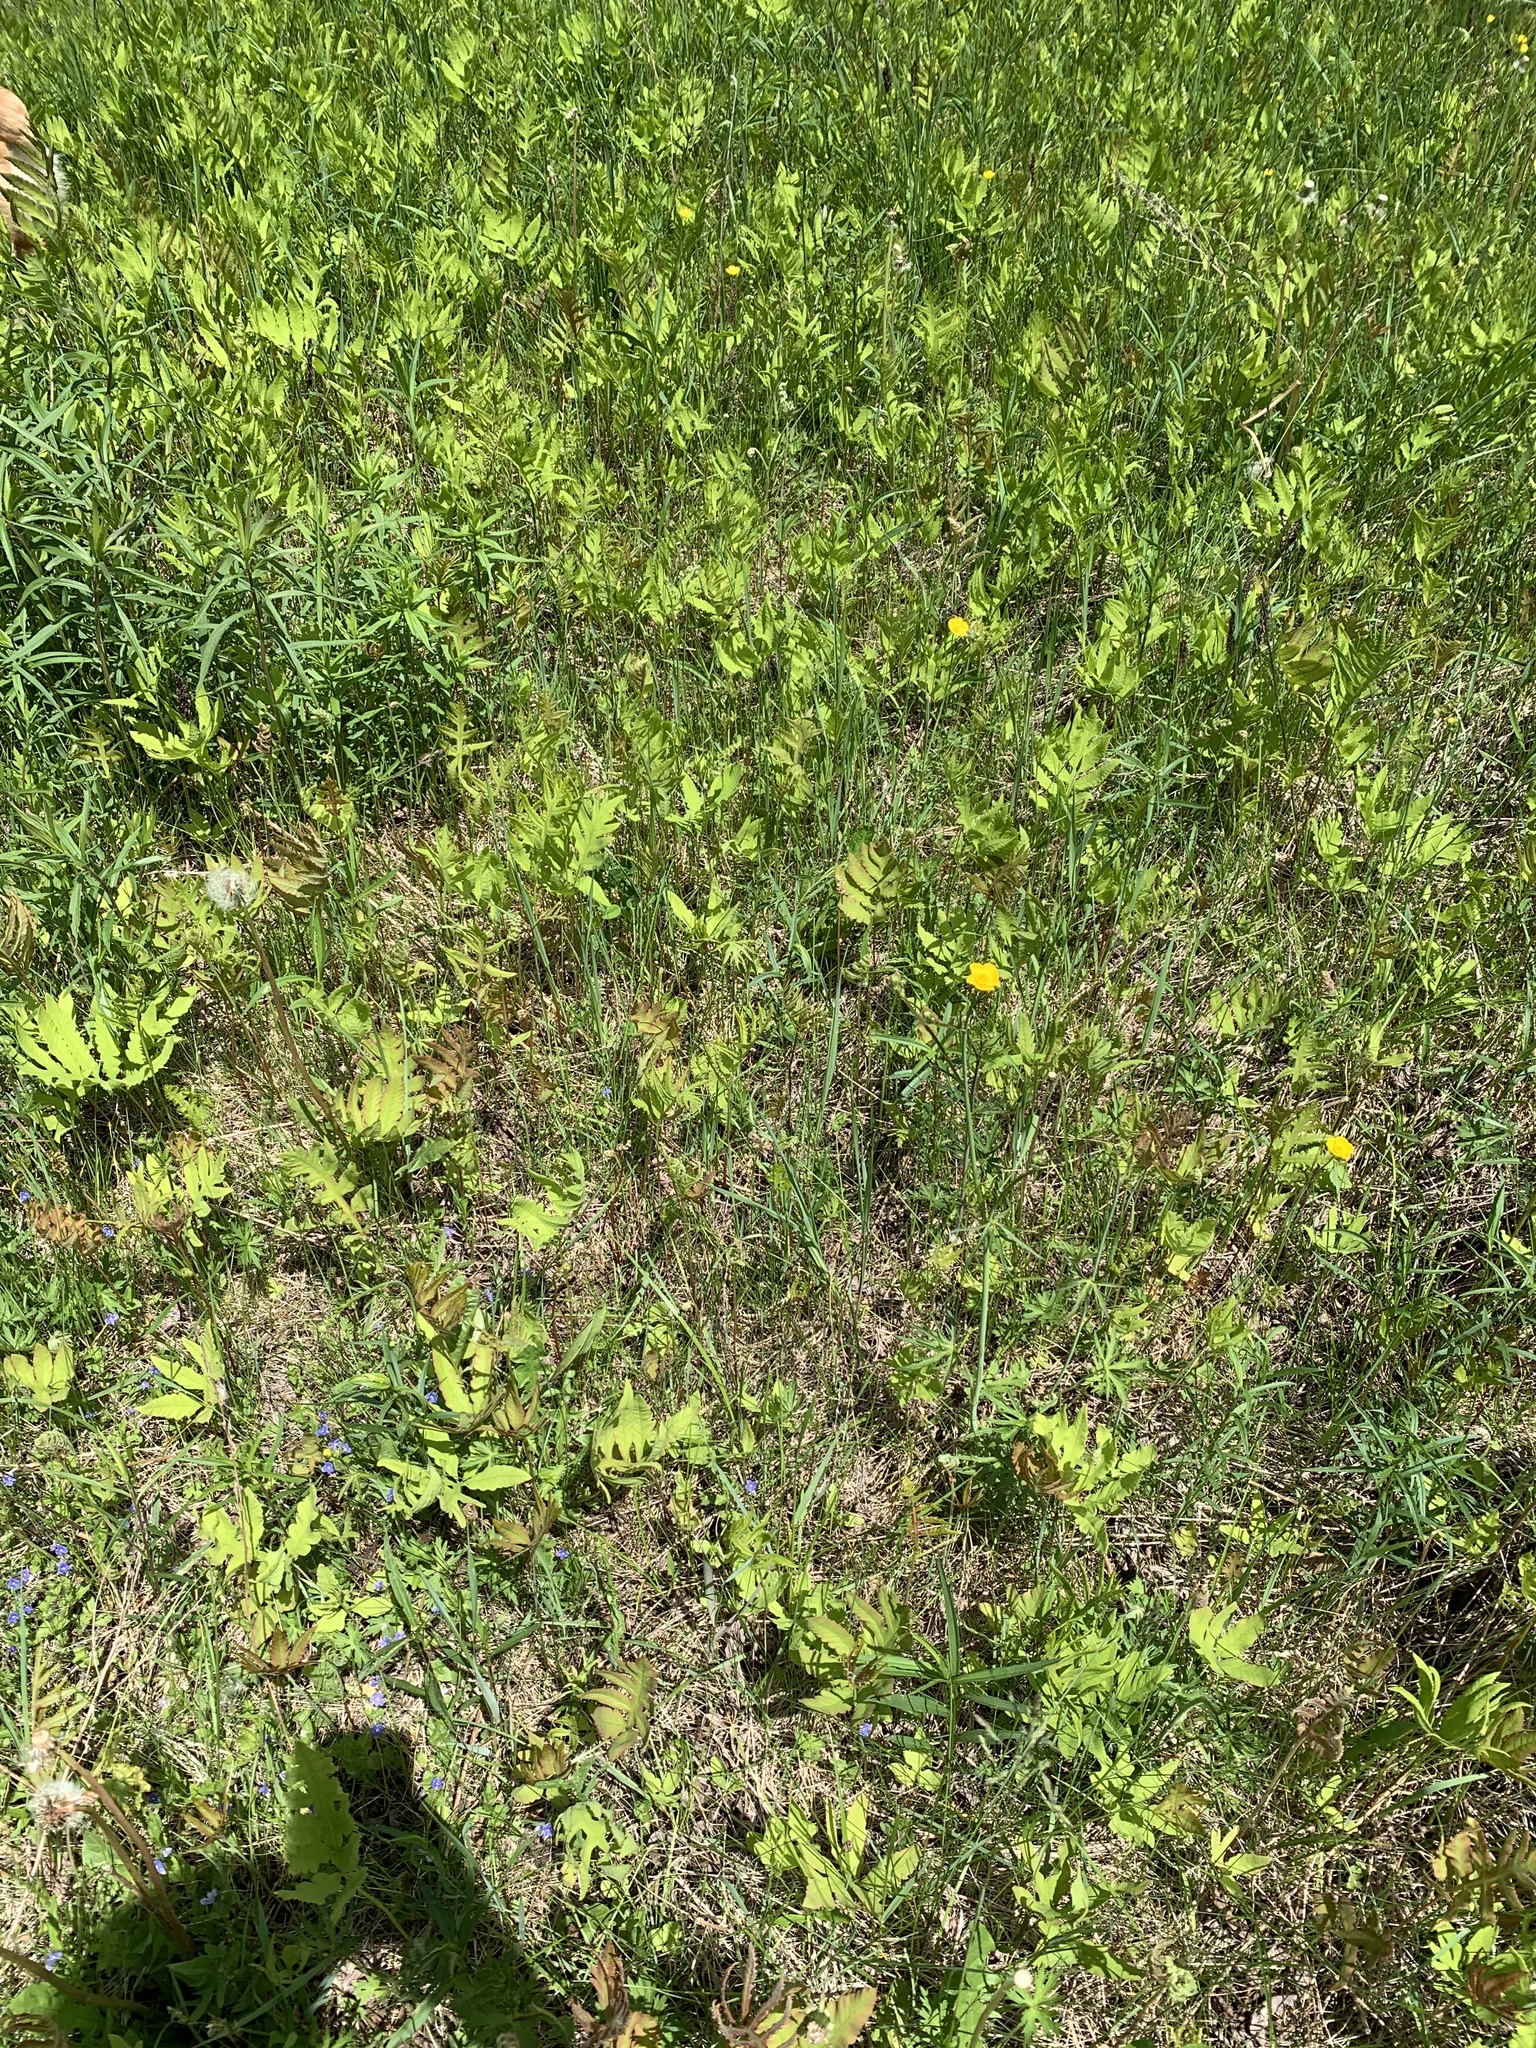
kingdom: Plantae
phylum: Tracheophyta
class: Polypodiopsida
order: Polypodiales
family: Onocleaceae
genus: Onoclea
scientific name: Onoclea sensibilis
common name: Sensitive fern
